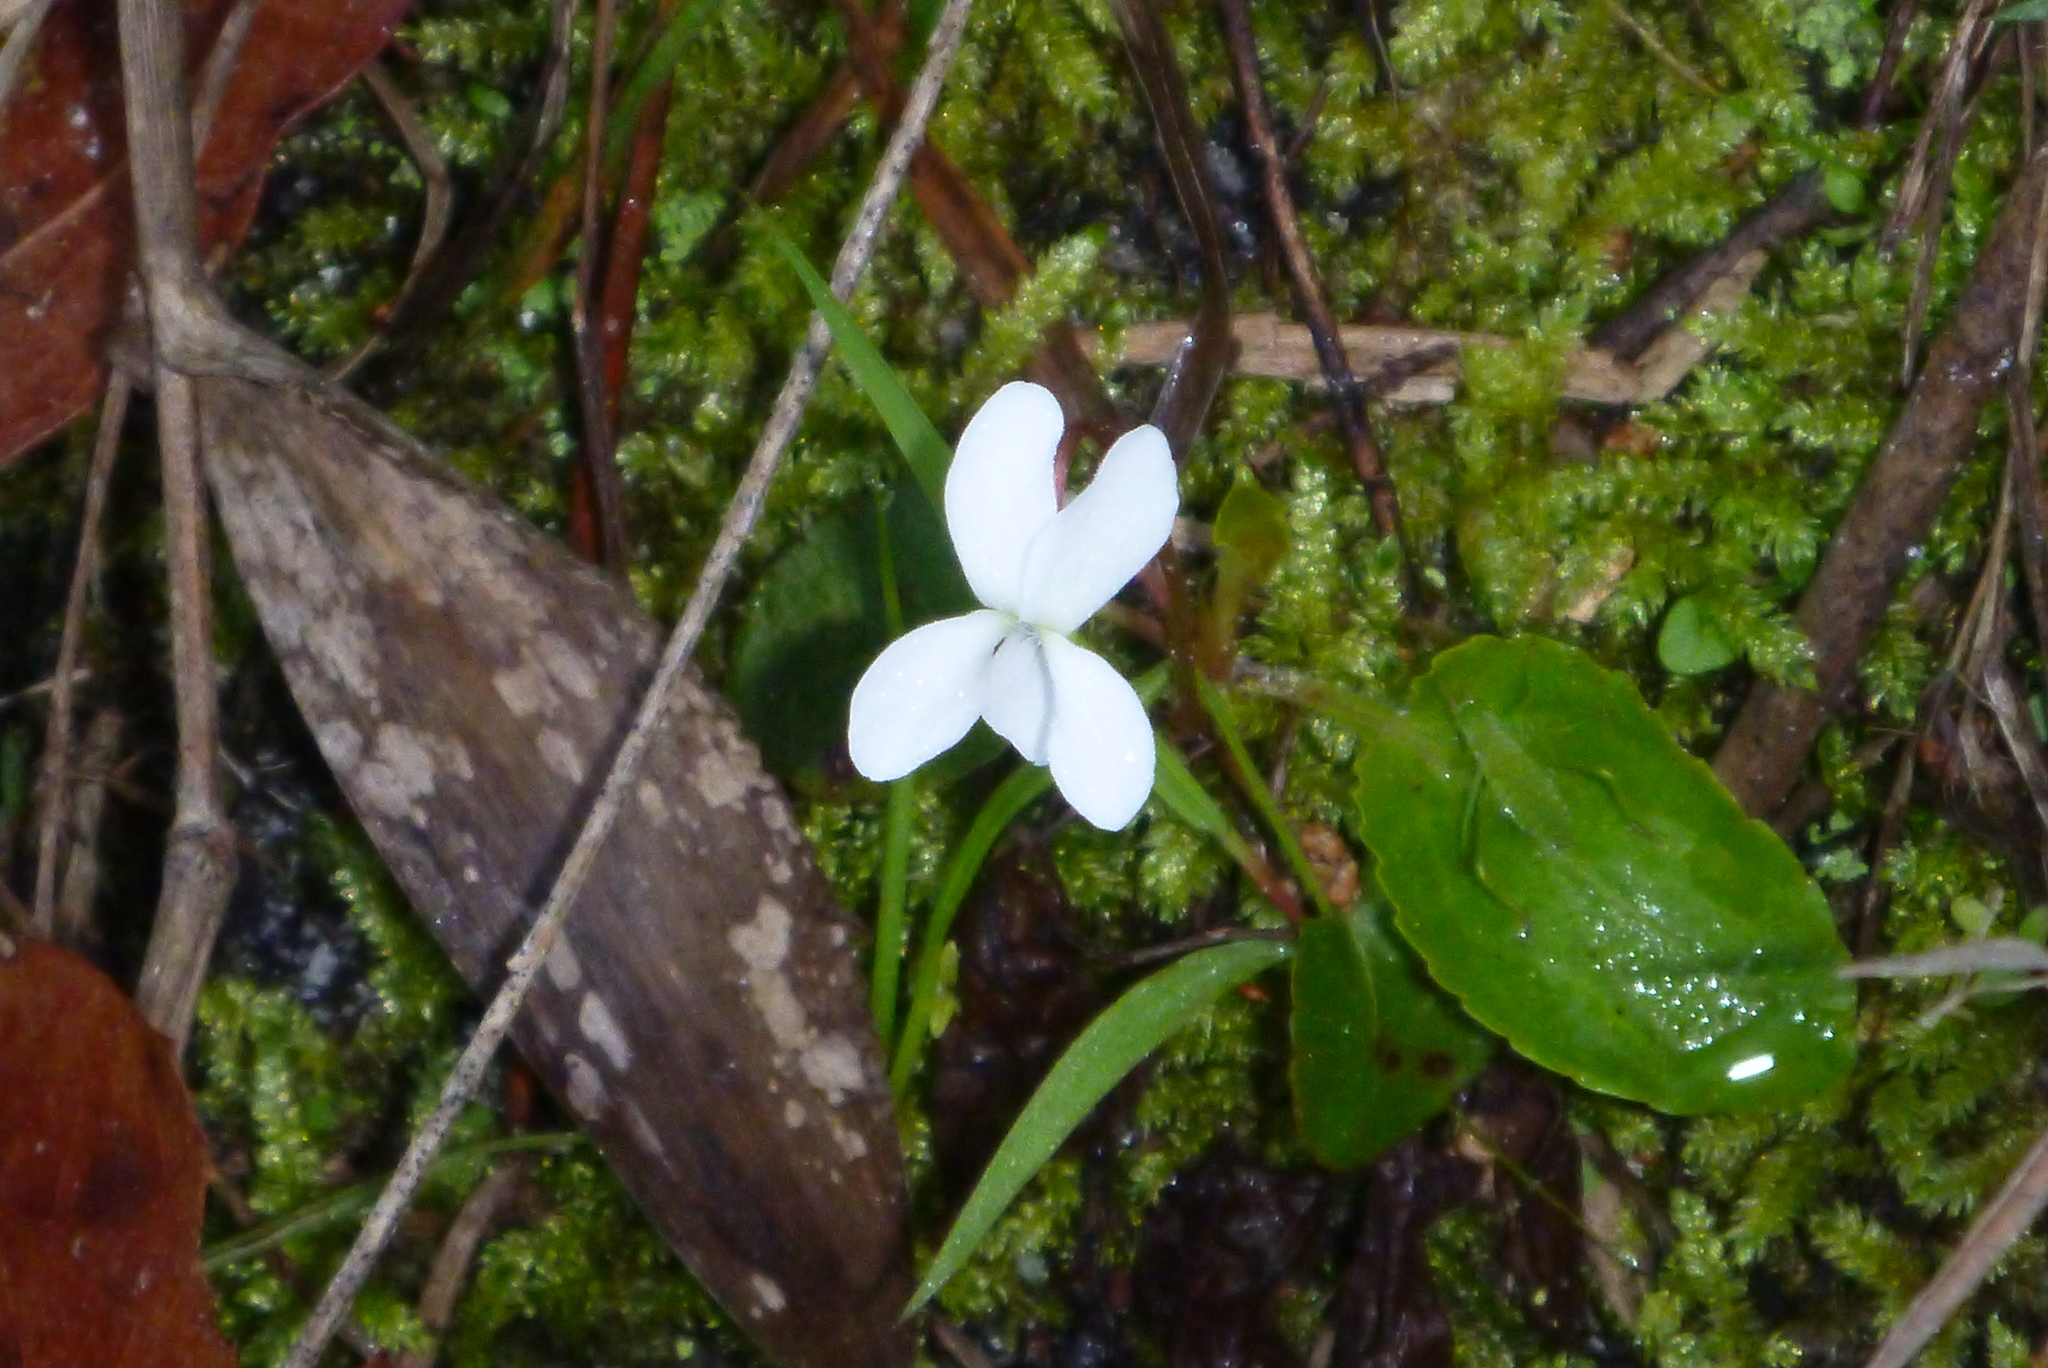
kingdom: Plantae
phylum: Tracheophyta
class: Magnoliopsida
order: Malpighiales
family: Violaceae
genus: Viola
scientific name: Viola primulifolia
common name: Primrose-leaf violet
